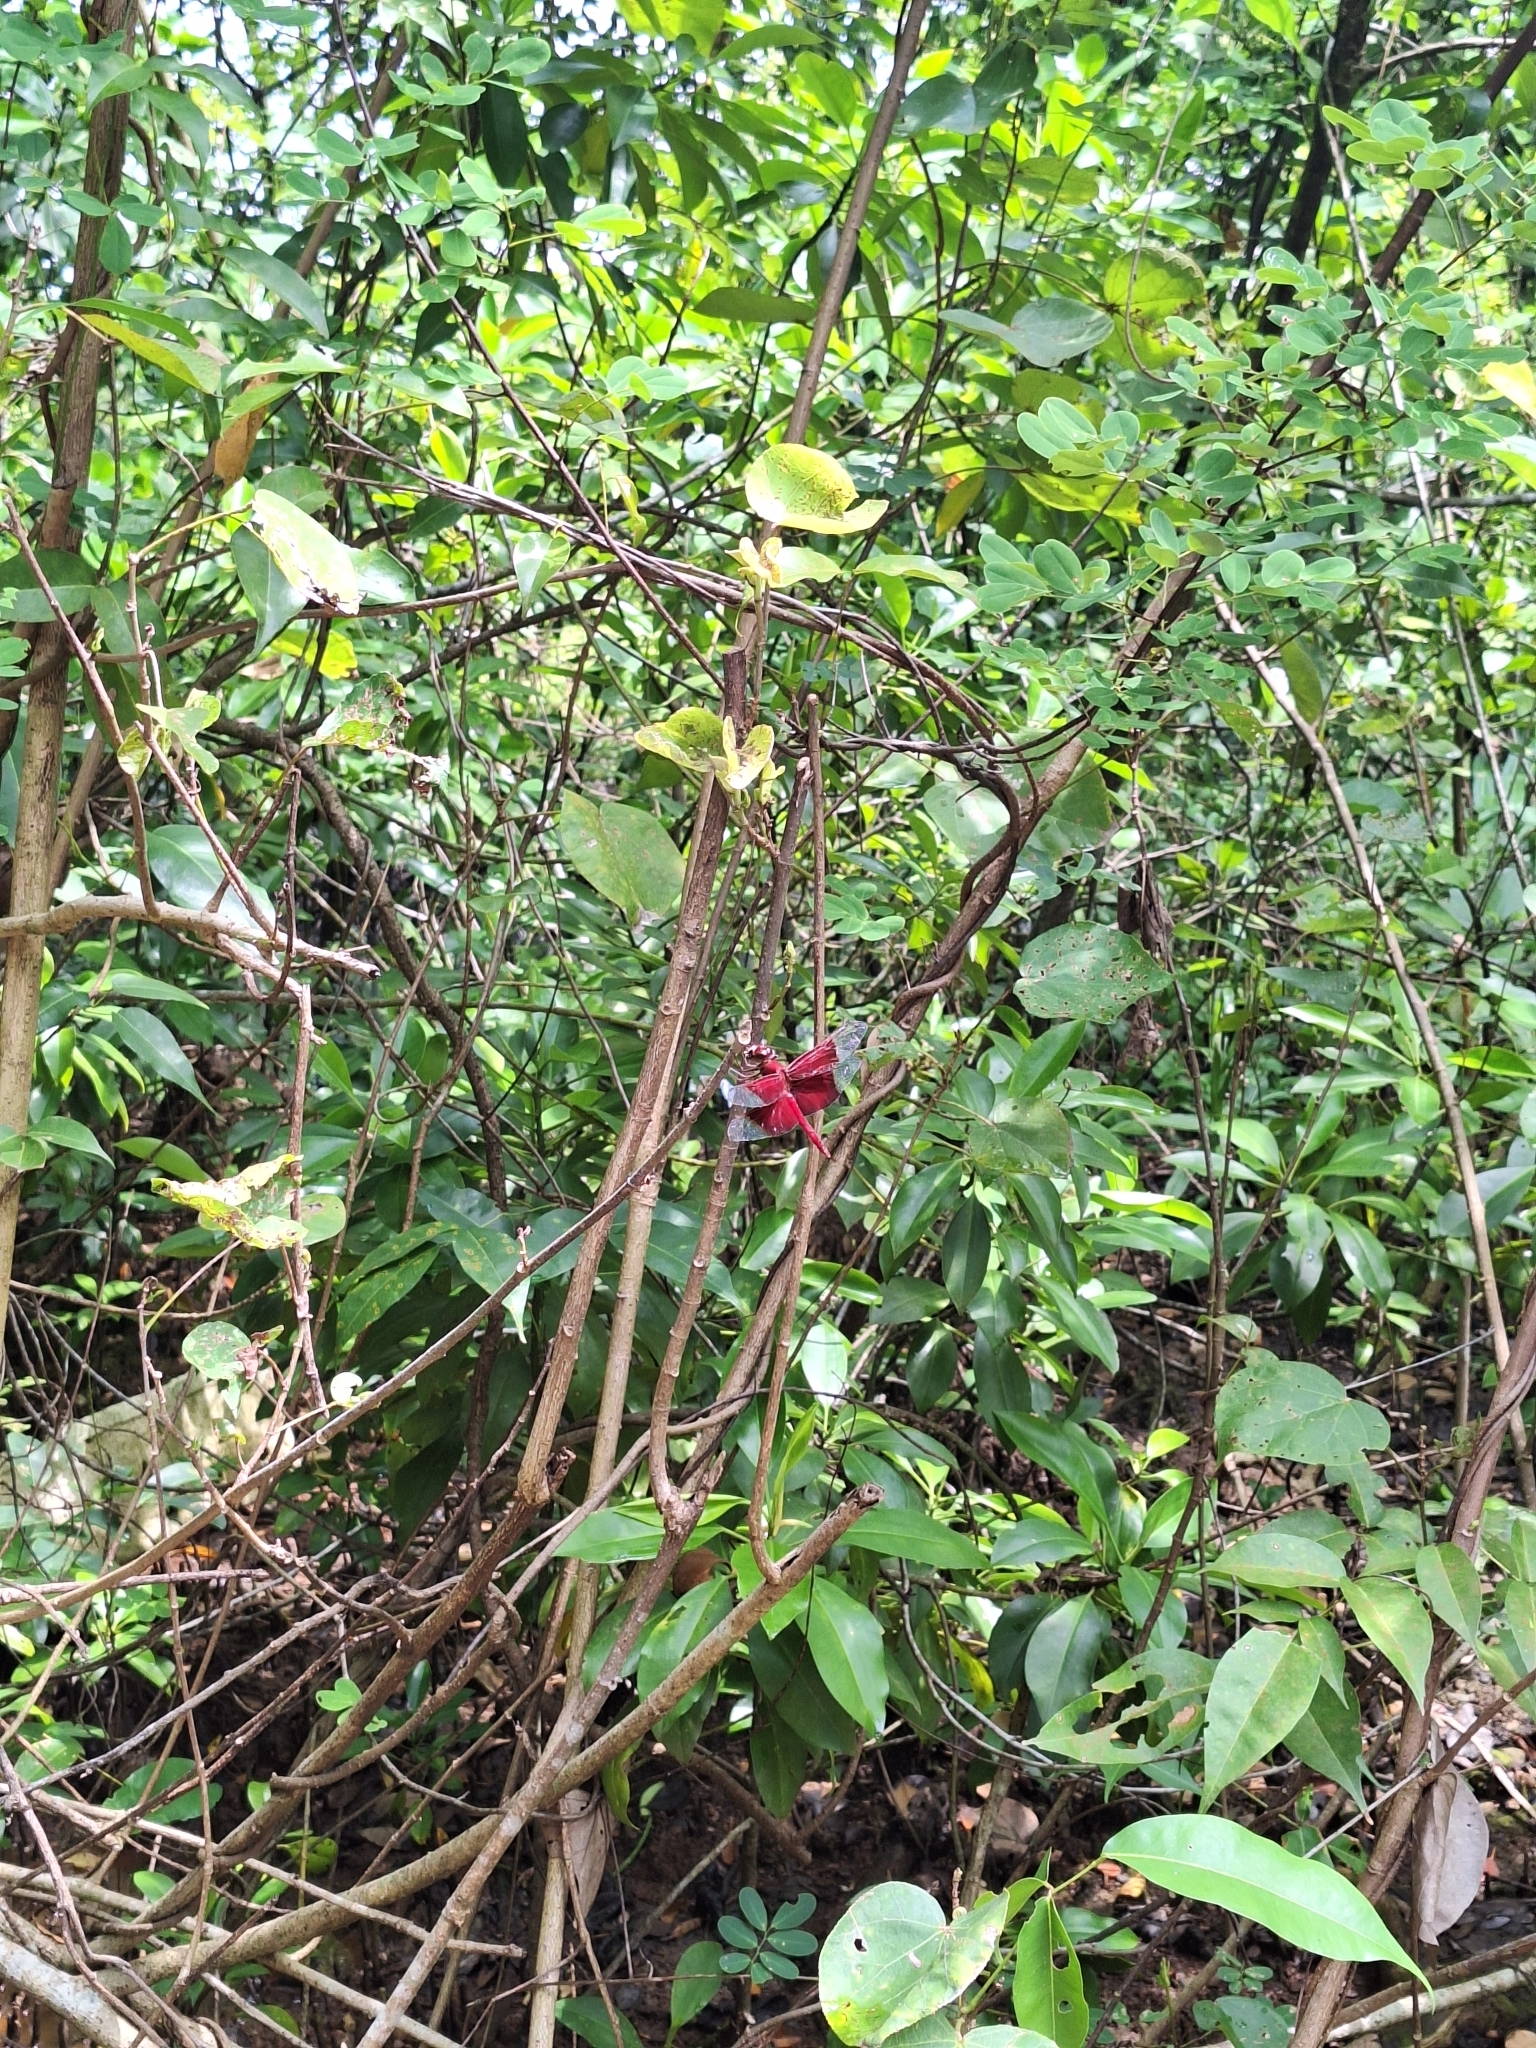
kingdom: Animalia
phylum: Arthropoda
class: Insecta
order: Odonata
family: Libellulidae
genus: Camacinia
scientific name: Camacinia gigantea
